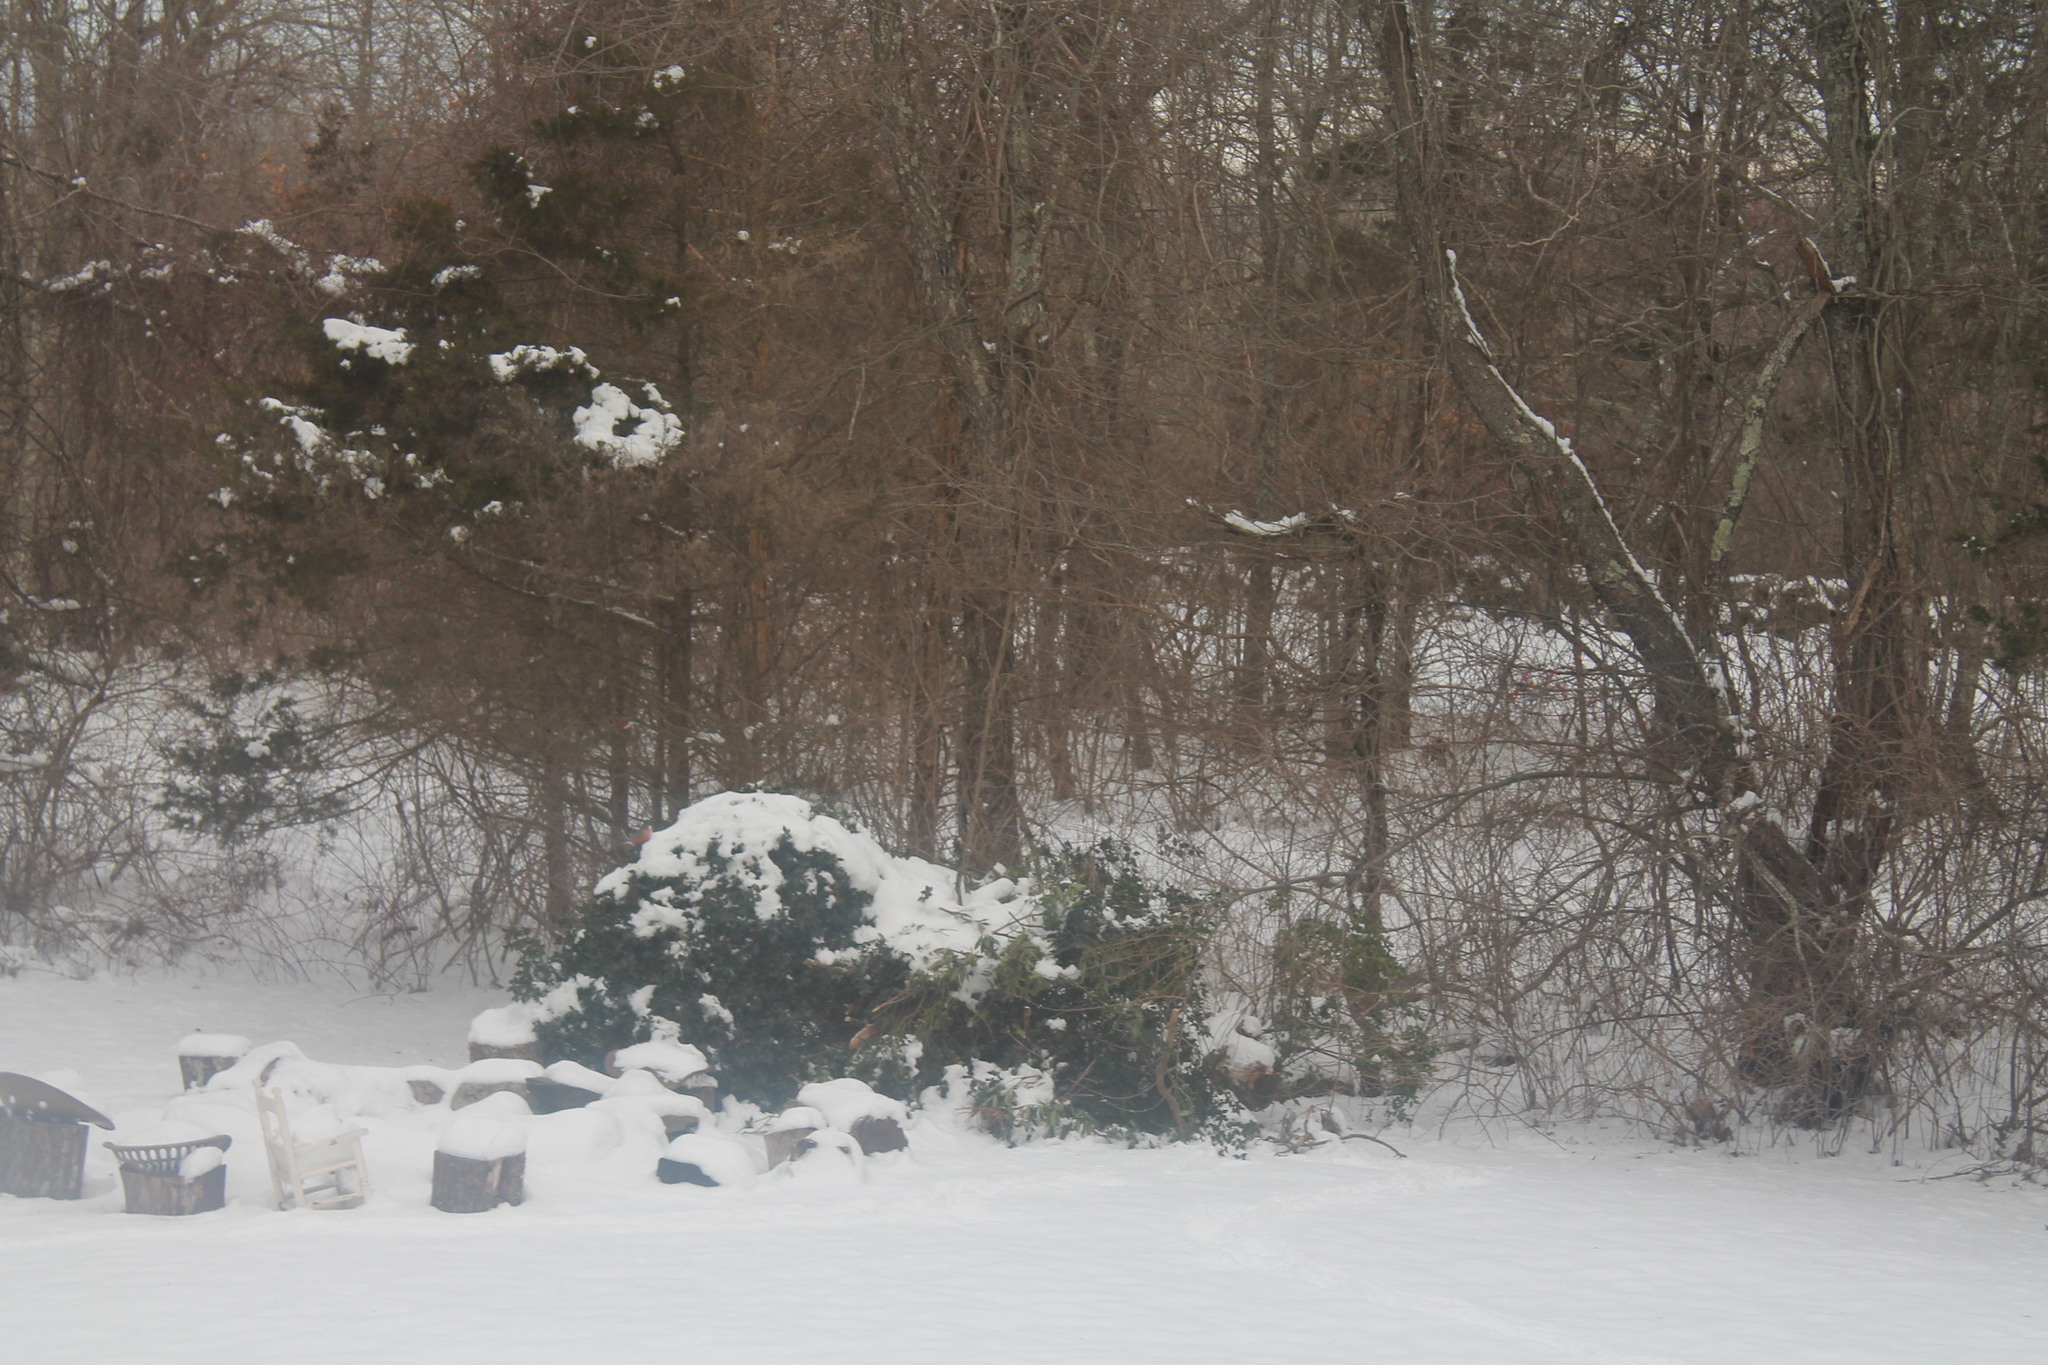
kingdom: Animalia
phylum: Chordata
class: Aves
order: Passeriformes
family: Turdidae
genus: Turdus
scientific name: Turdus migratorius
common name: American robin
